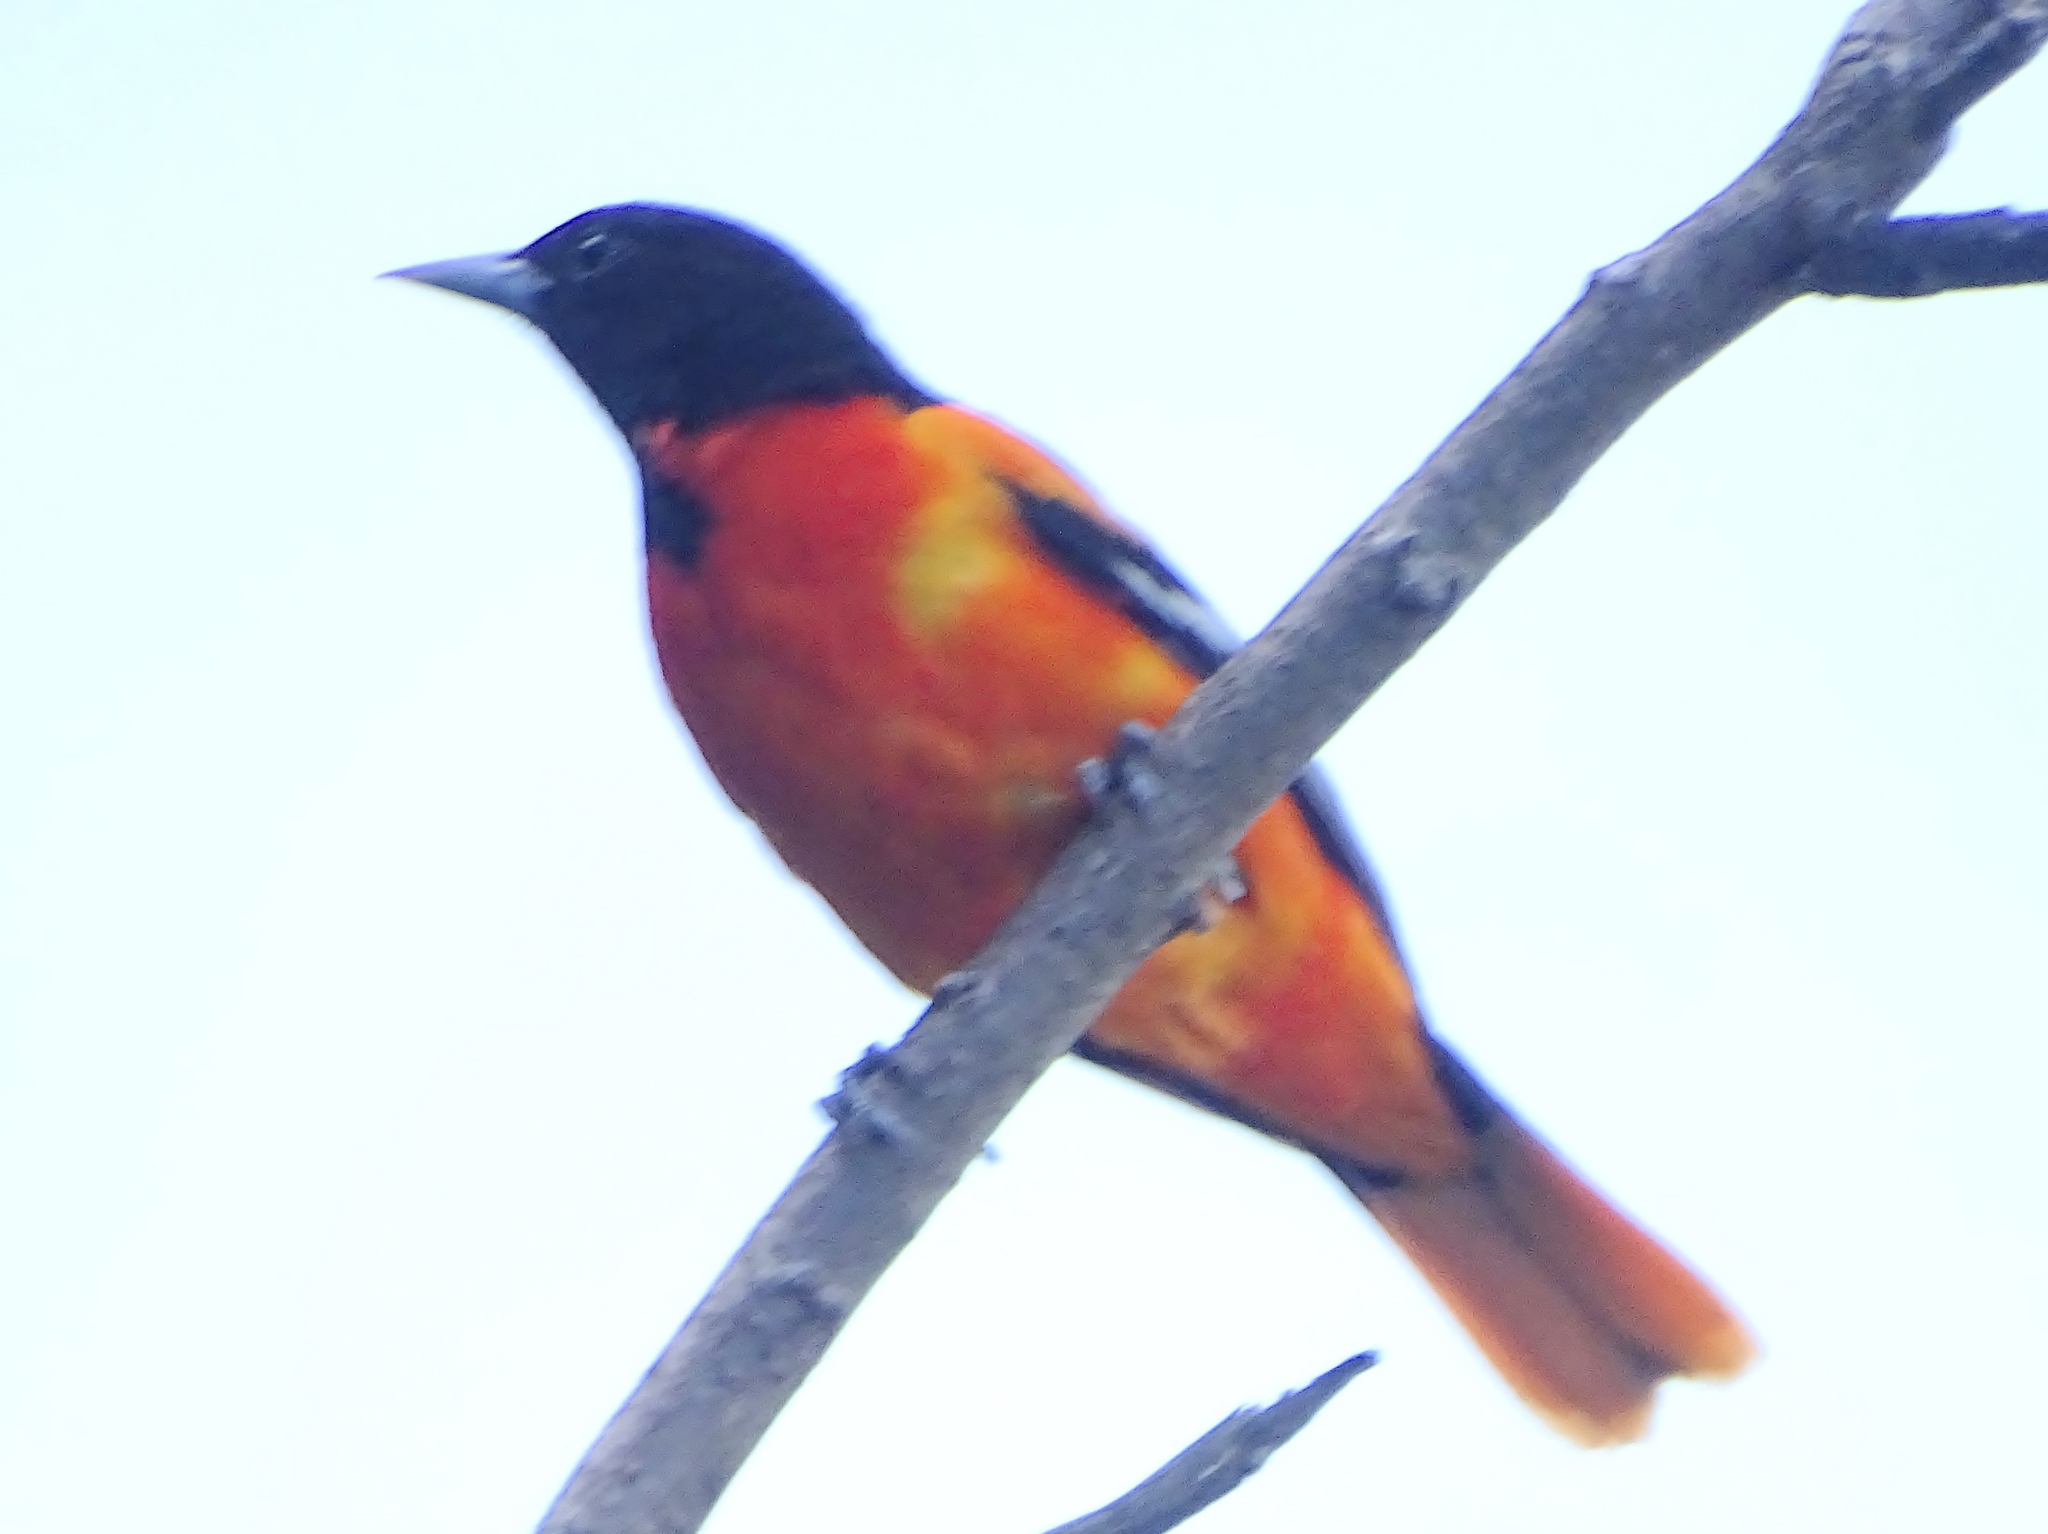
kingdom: Animalia
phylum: Chordata
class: Aves
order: Passeriformes
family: Icteridae
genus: Icterus
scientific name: Icterus galbula
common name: Baltimore oriole
